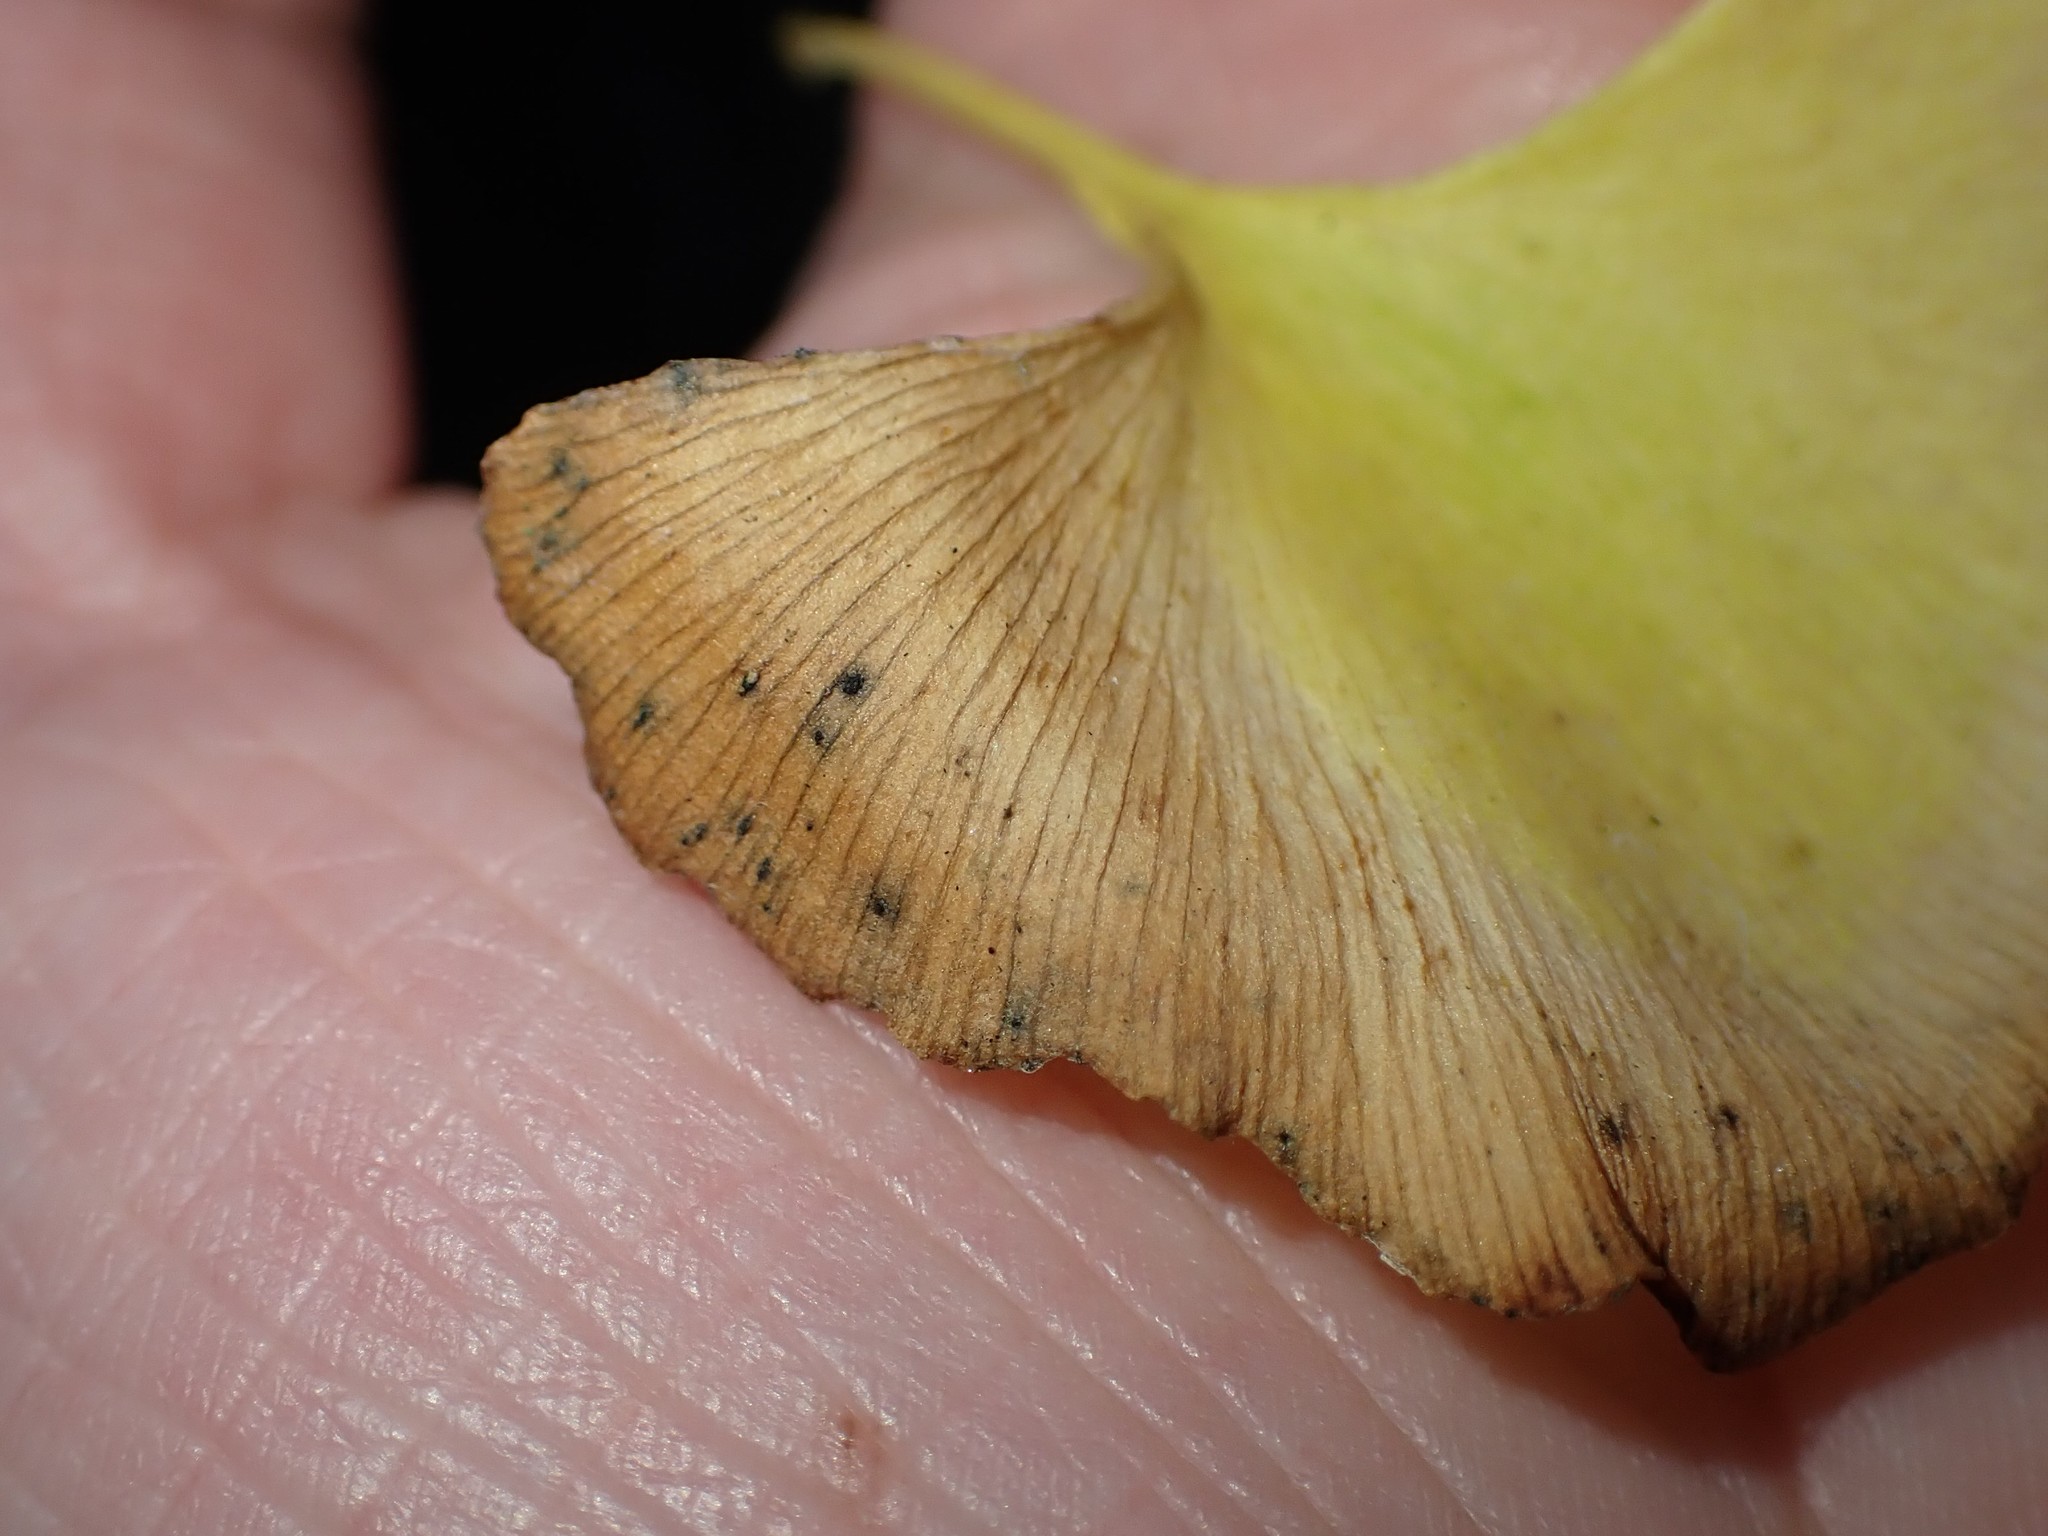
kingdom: Fungi
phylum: Basidiomycota
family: Bartheletiaceae
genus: Bartheletia
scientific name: Bartheletia paradoxa
